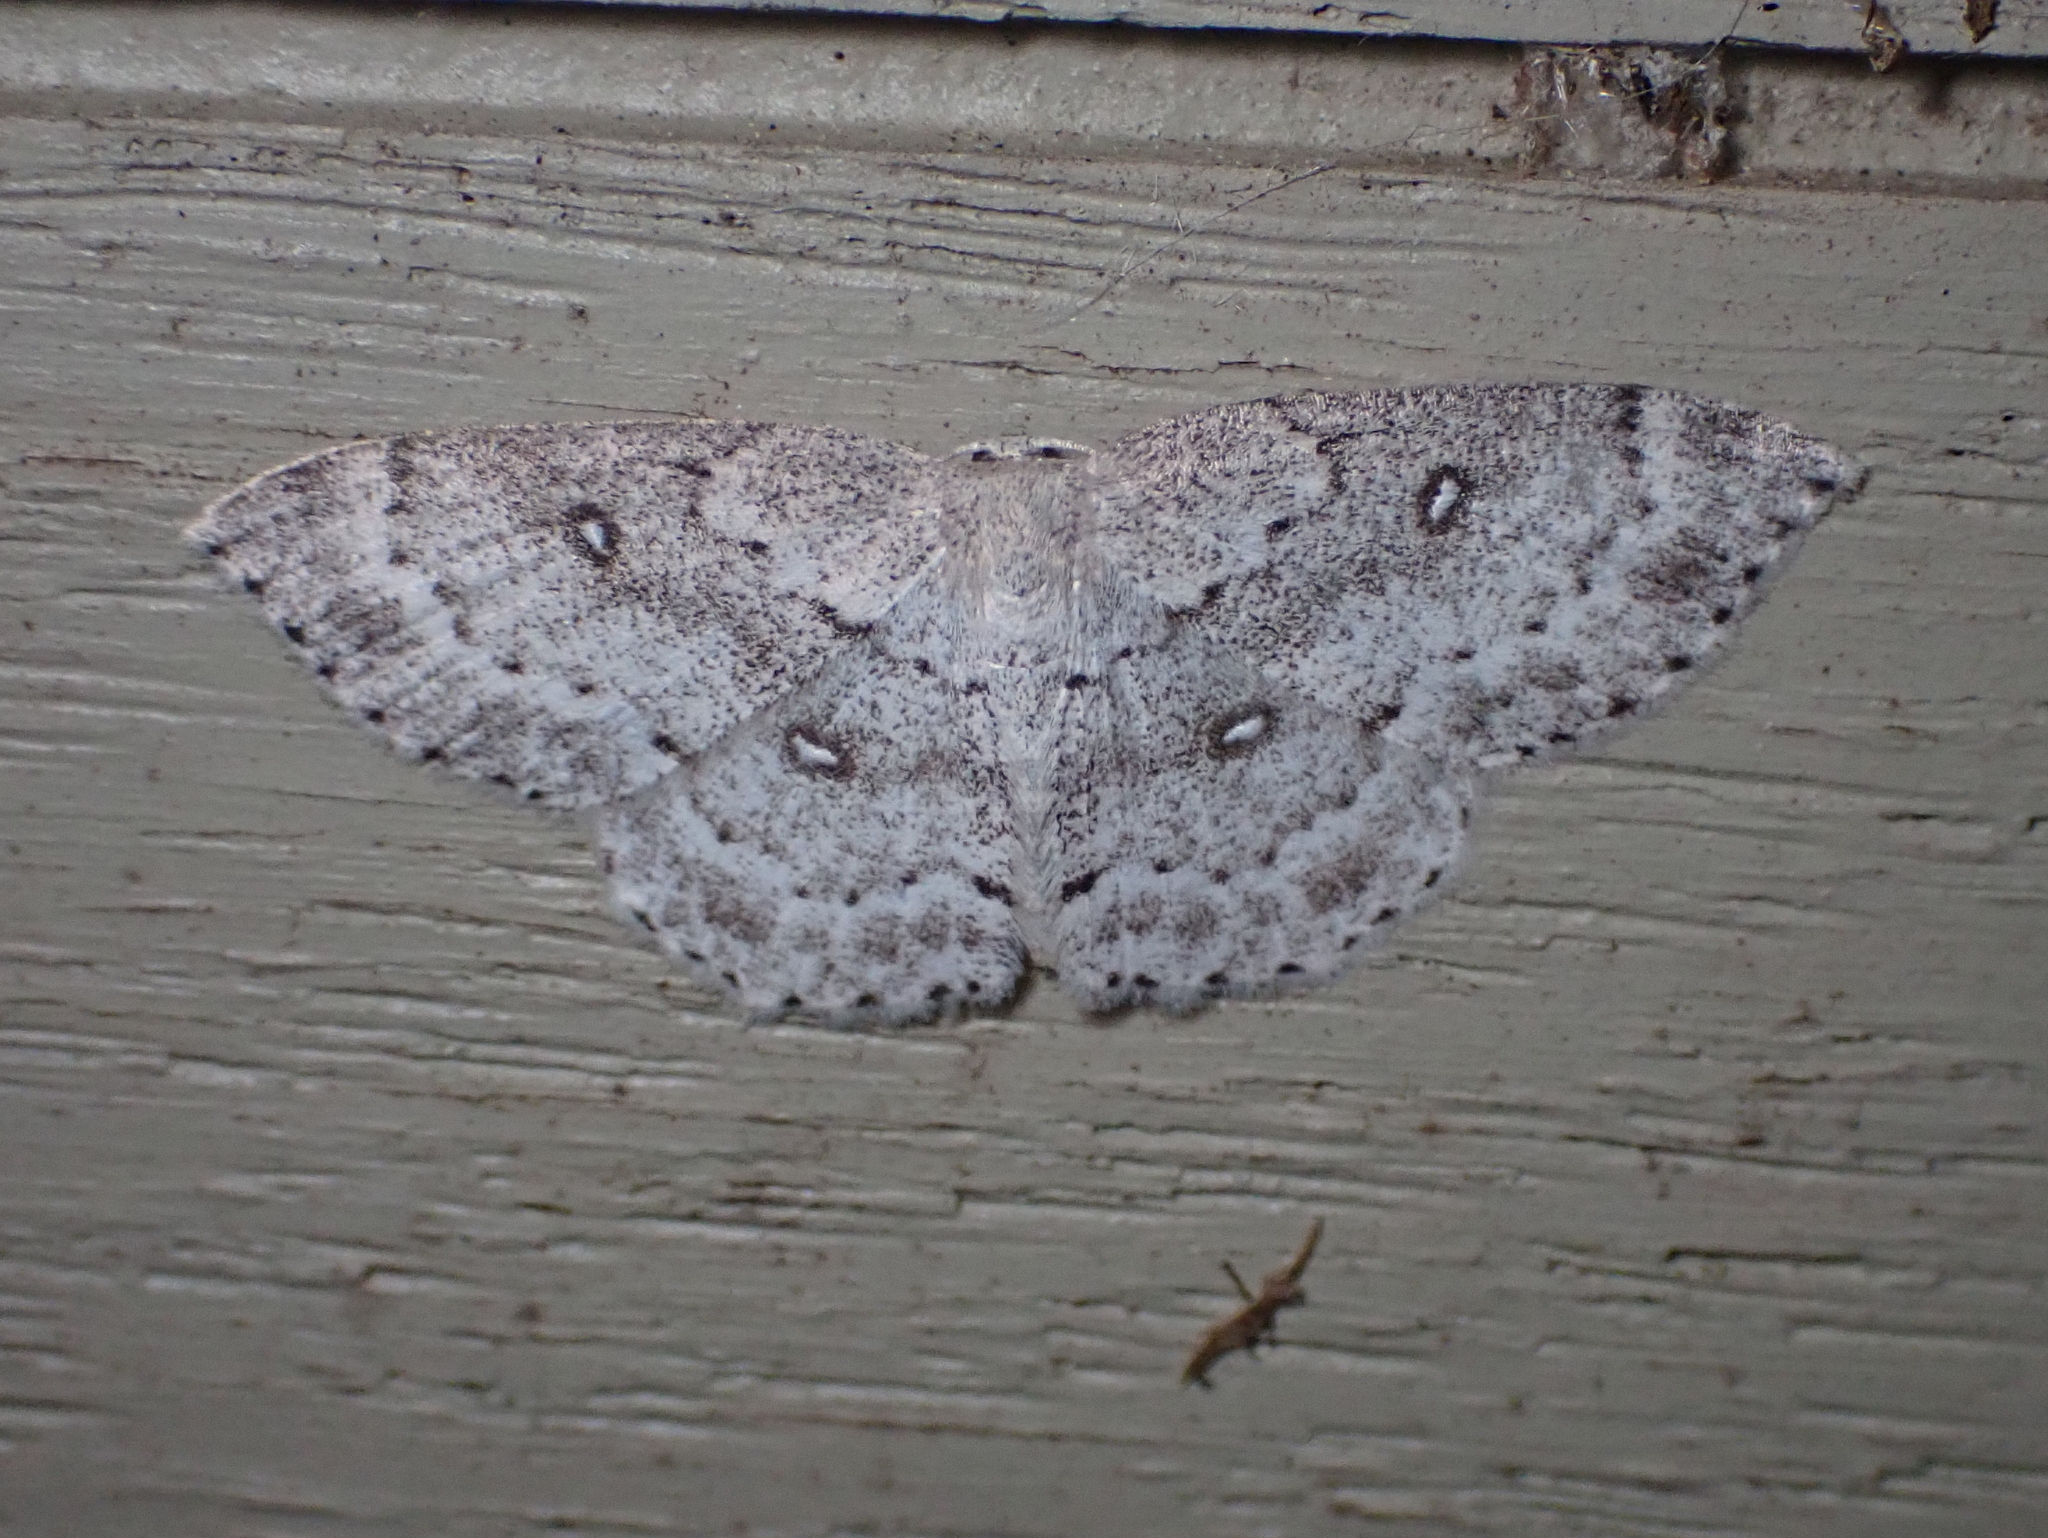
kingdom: Animalia
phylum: Arthropoda
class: Insecta
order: Lepidoptera
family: Geometridae
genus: Cyclophora
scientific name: Cyclophora pendulinaria
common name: Sweet fern geometer
